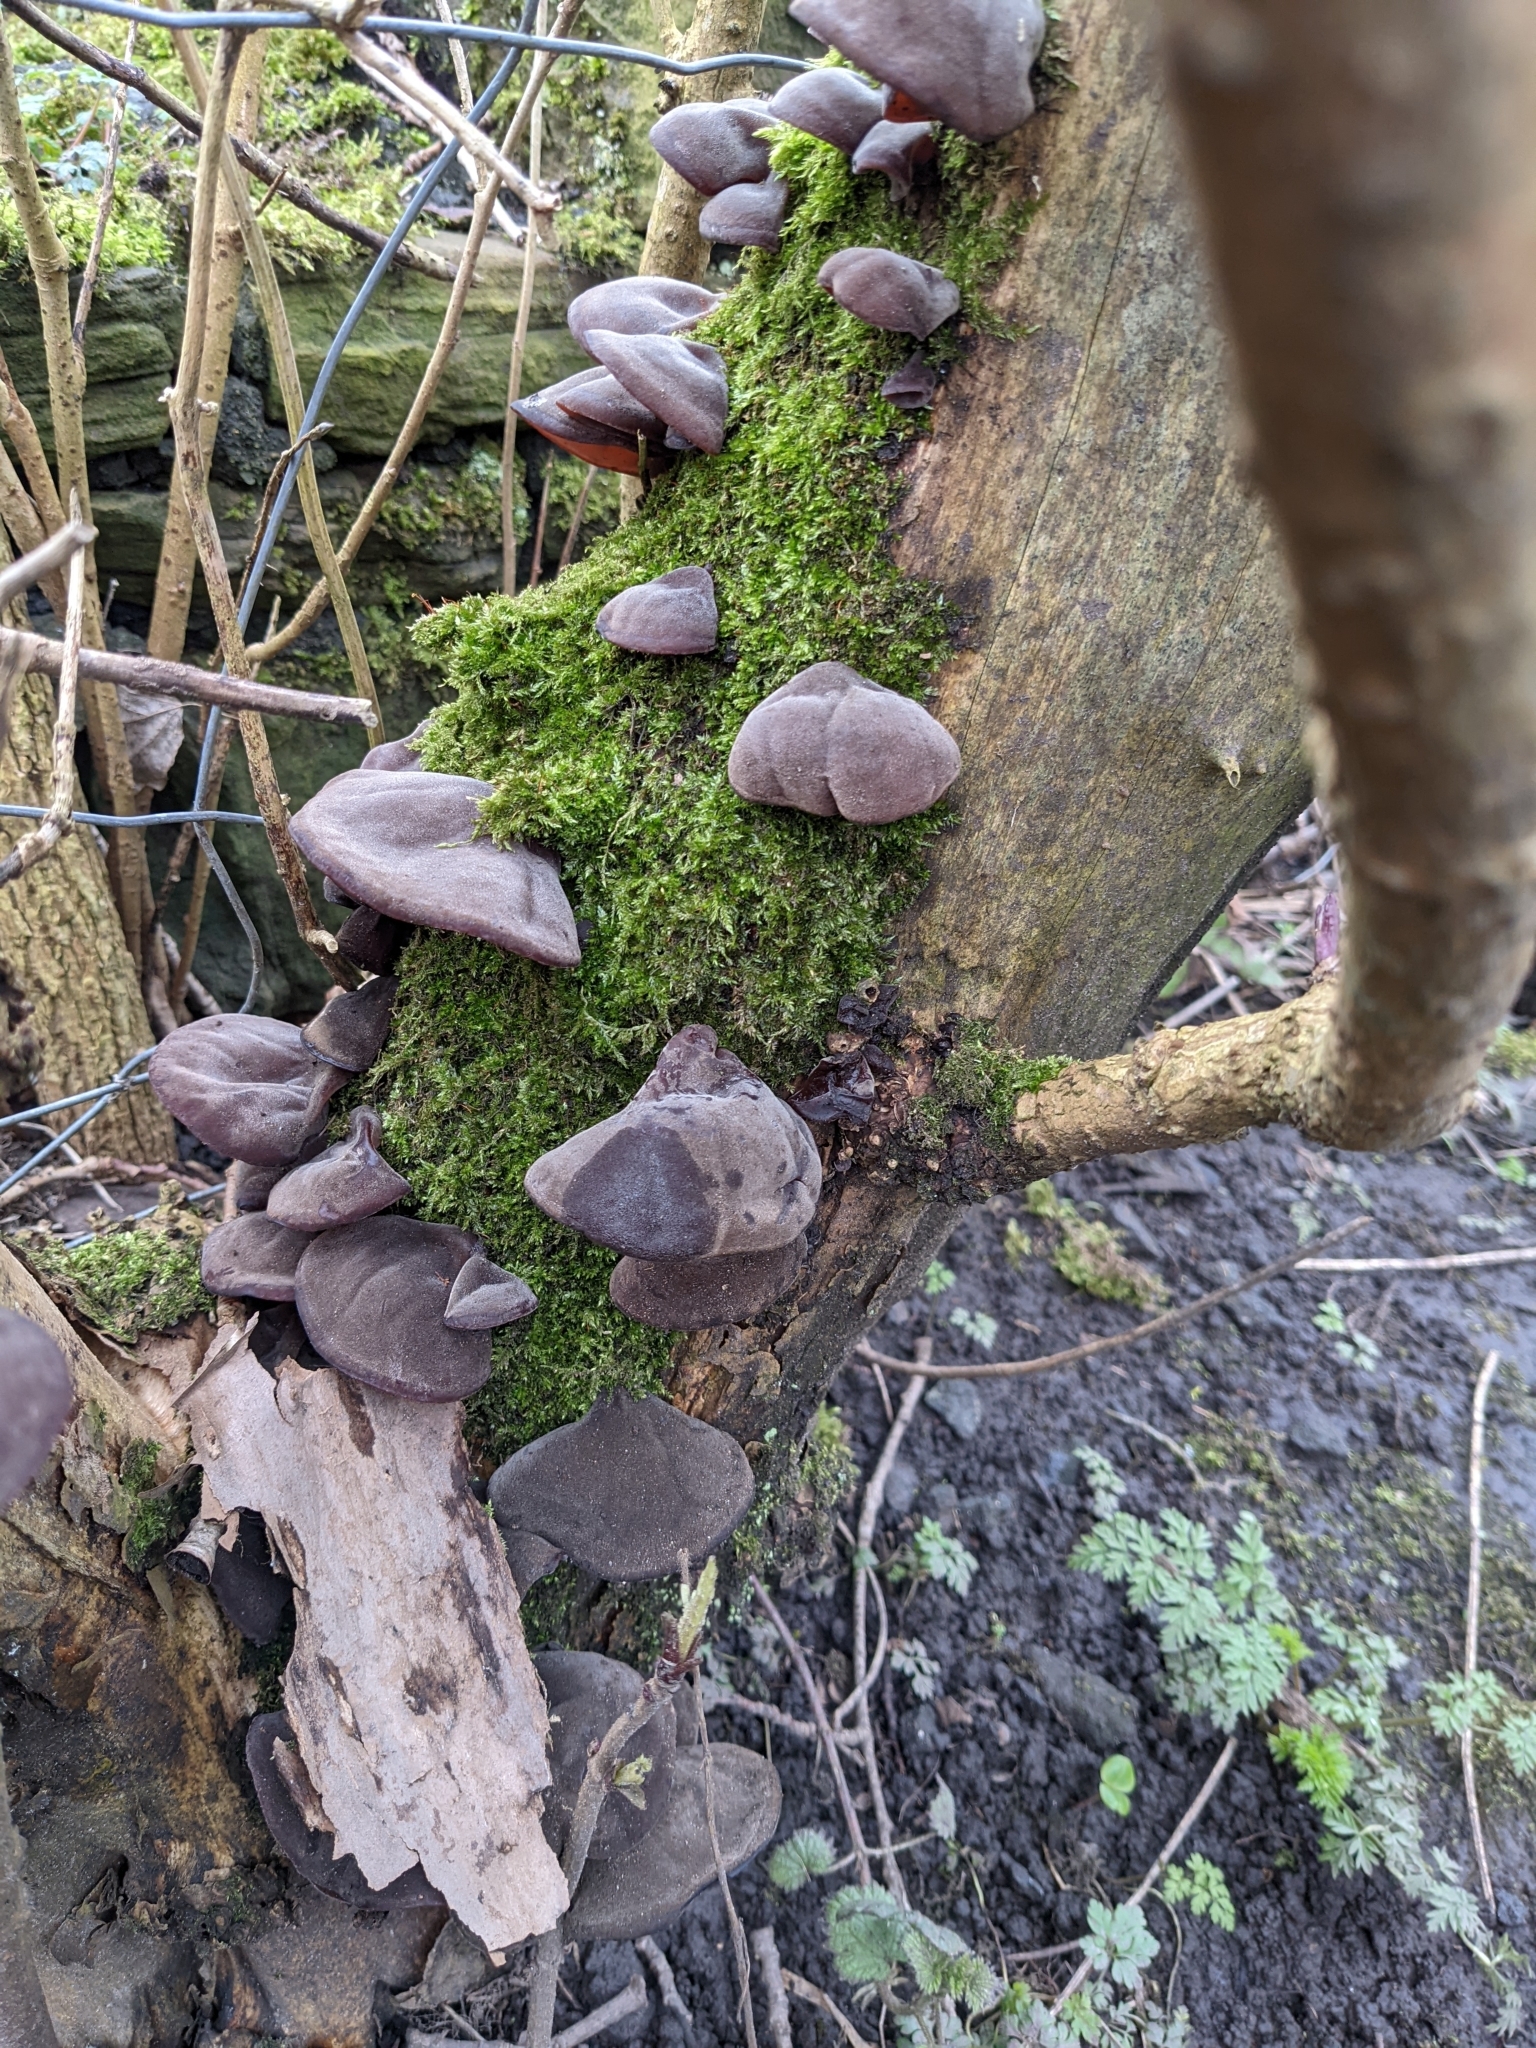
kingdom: Fungi
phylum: Basidiomycota
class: Agaricomycetes
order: Auriculariales
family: Auriculariaceae
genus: Auricularia
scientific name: Auricularia auricula-judae
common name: Jelly ear
